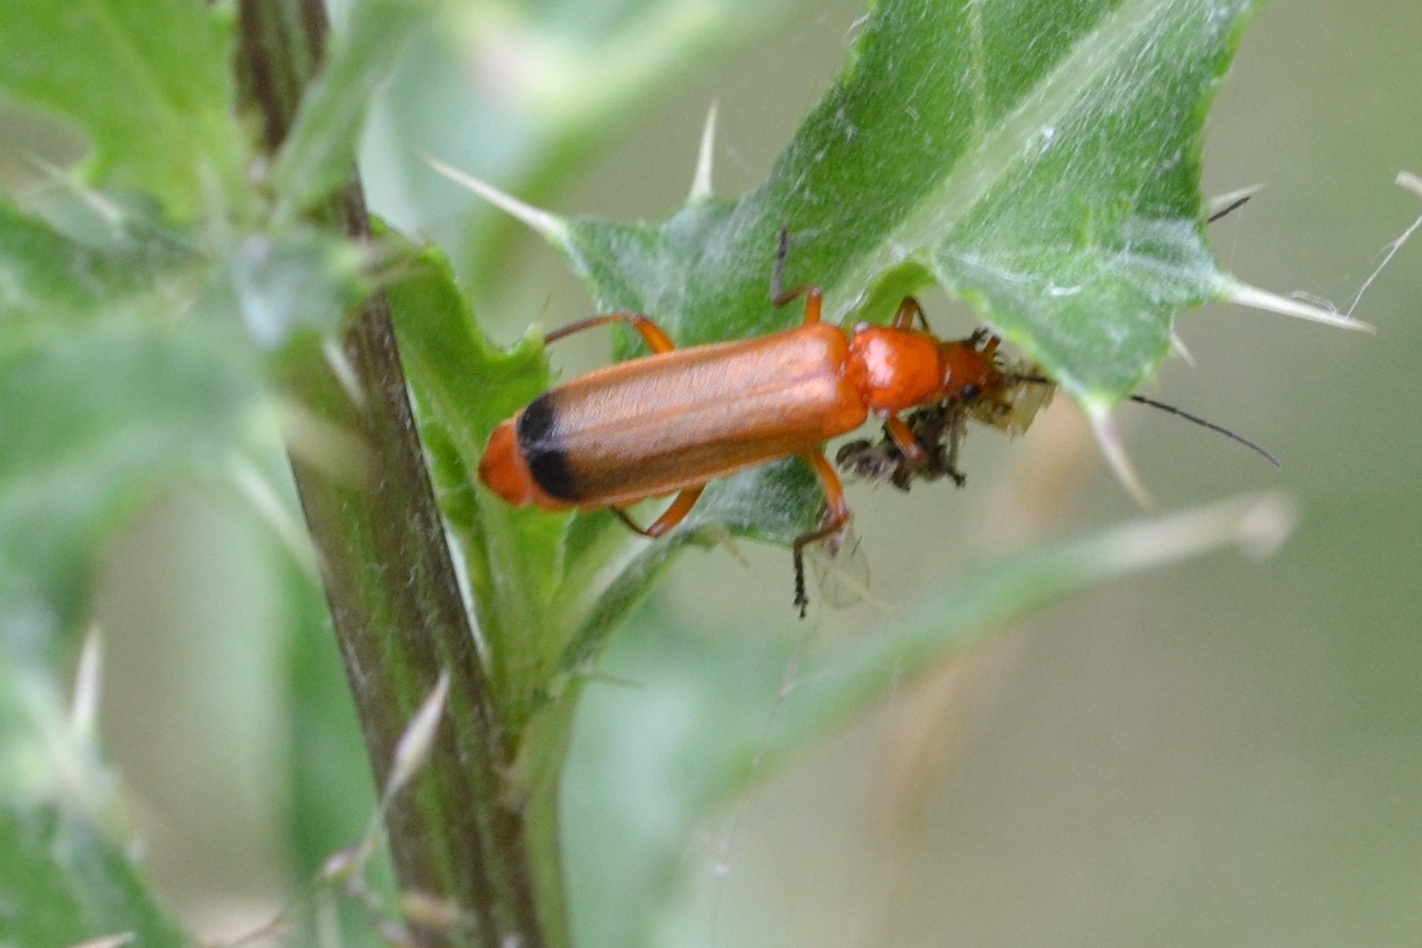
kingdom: Animalia
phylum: Arthropoda
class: Insecta
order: Coleoptera
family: Cantharidae
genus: Rhagonycha
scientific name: Rhagonycha fulva
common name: Common red soldier beetle
